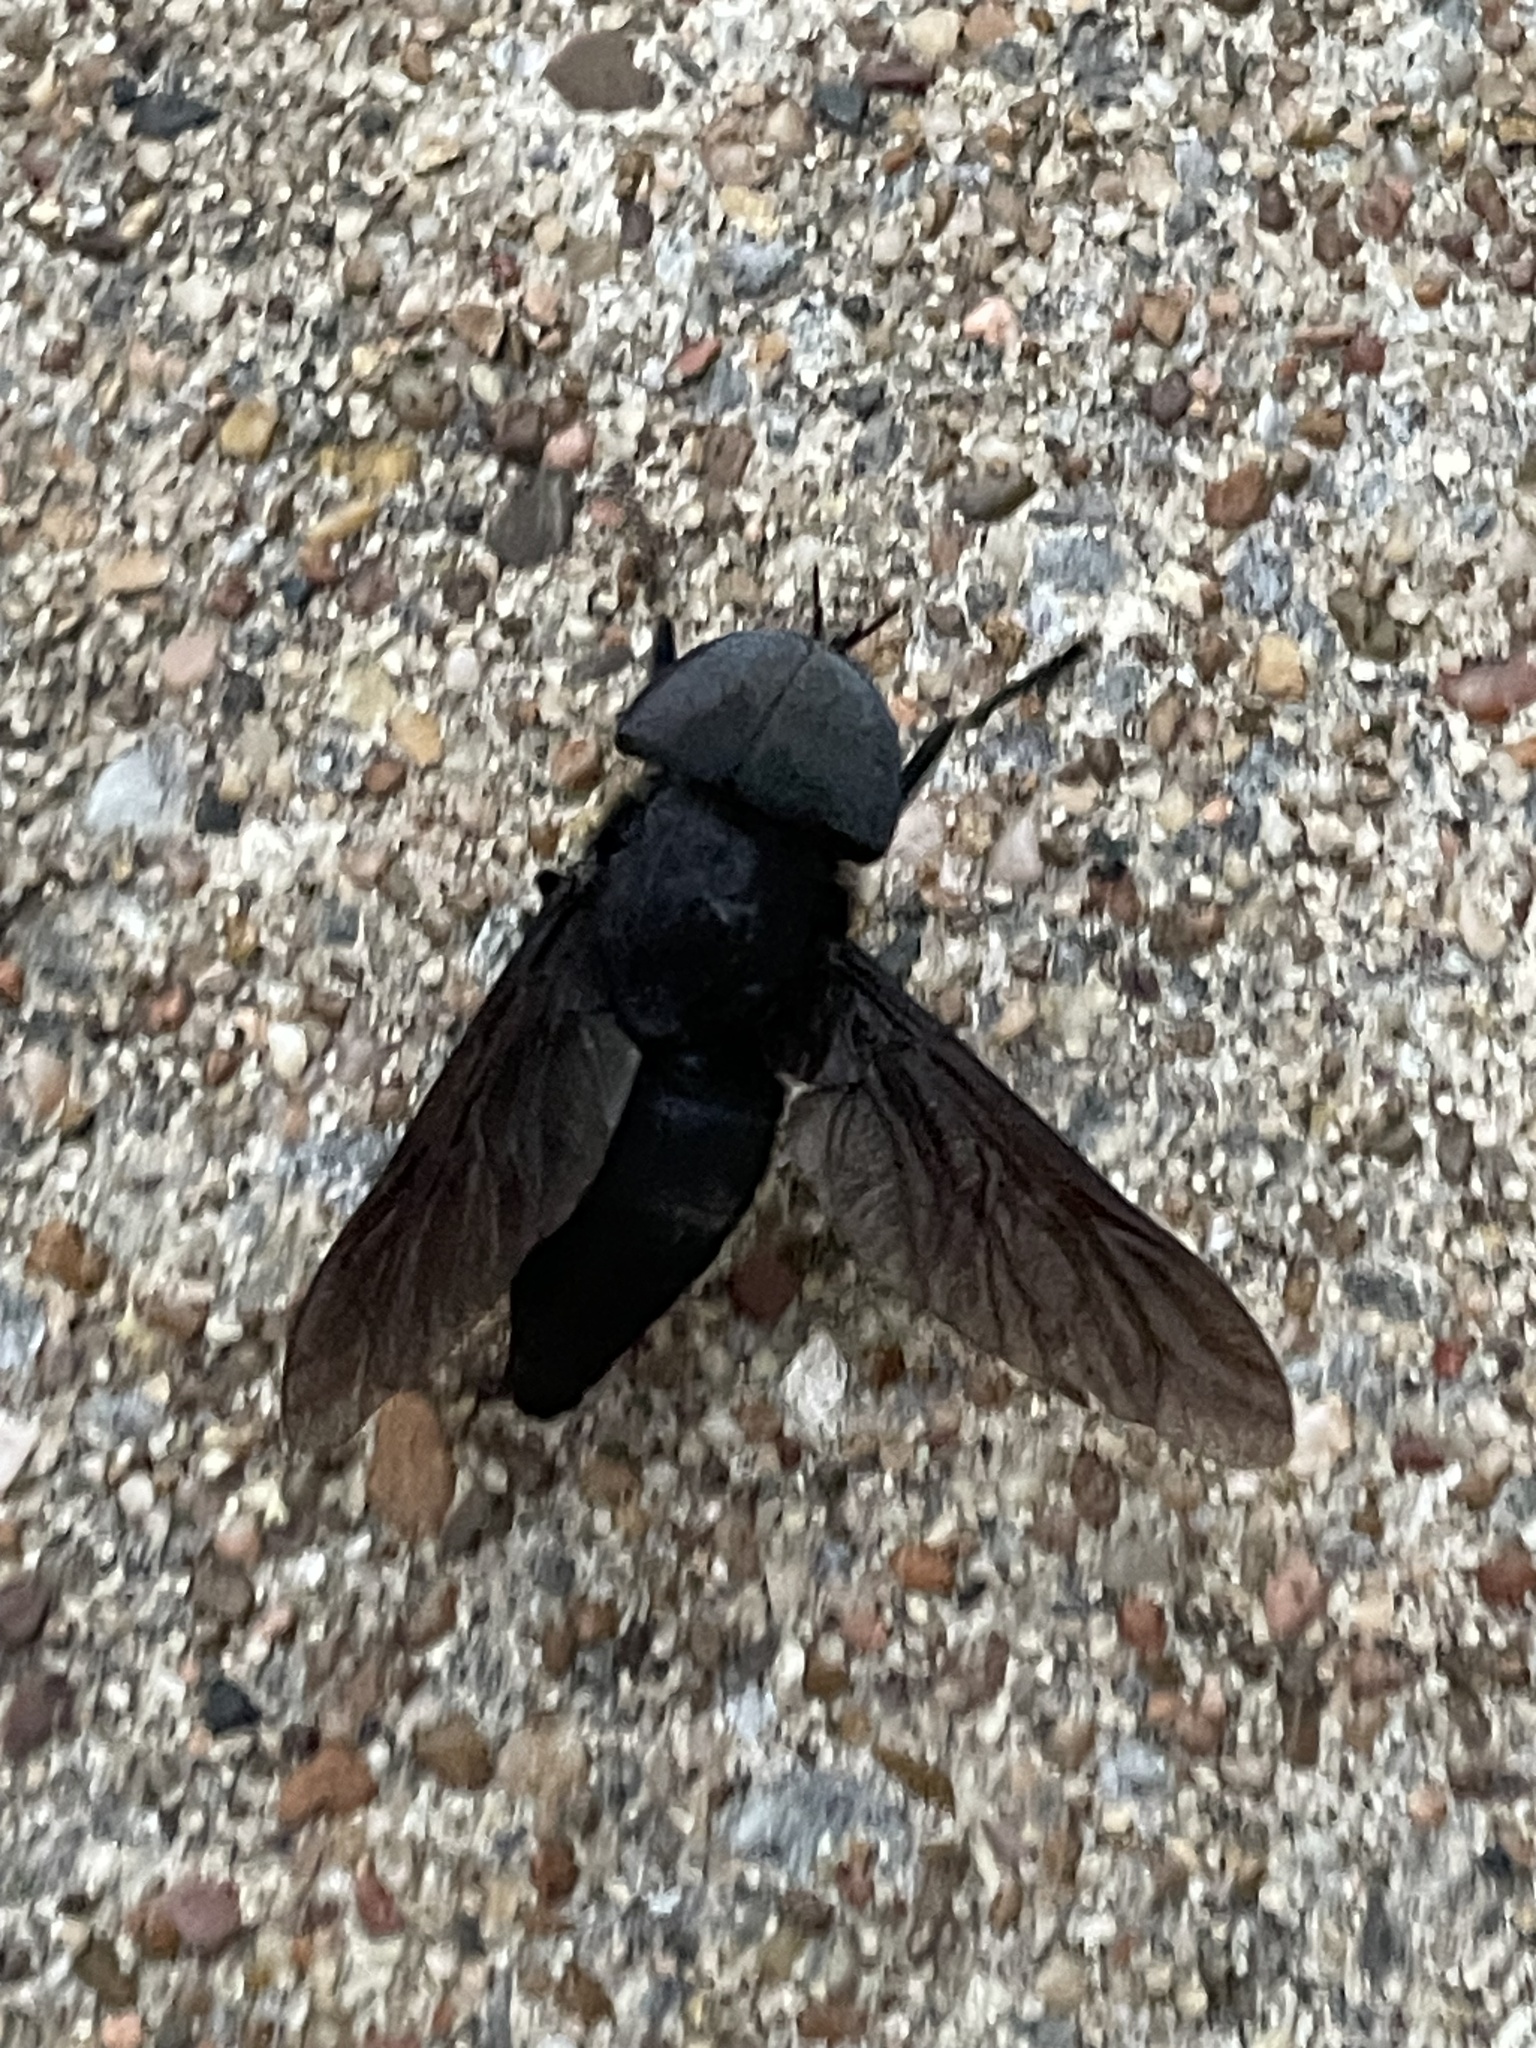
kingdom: Animalia
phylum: Arthropoda
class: Insecta
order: Diptera
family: Tabanidae
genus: Tabanus
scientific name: Tabanus atratus
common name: Black horse fly
